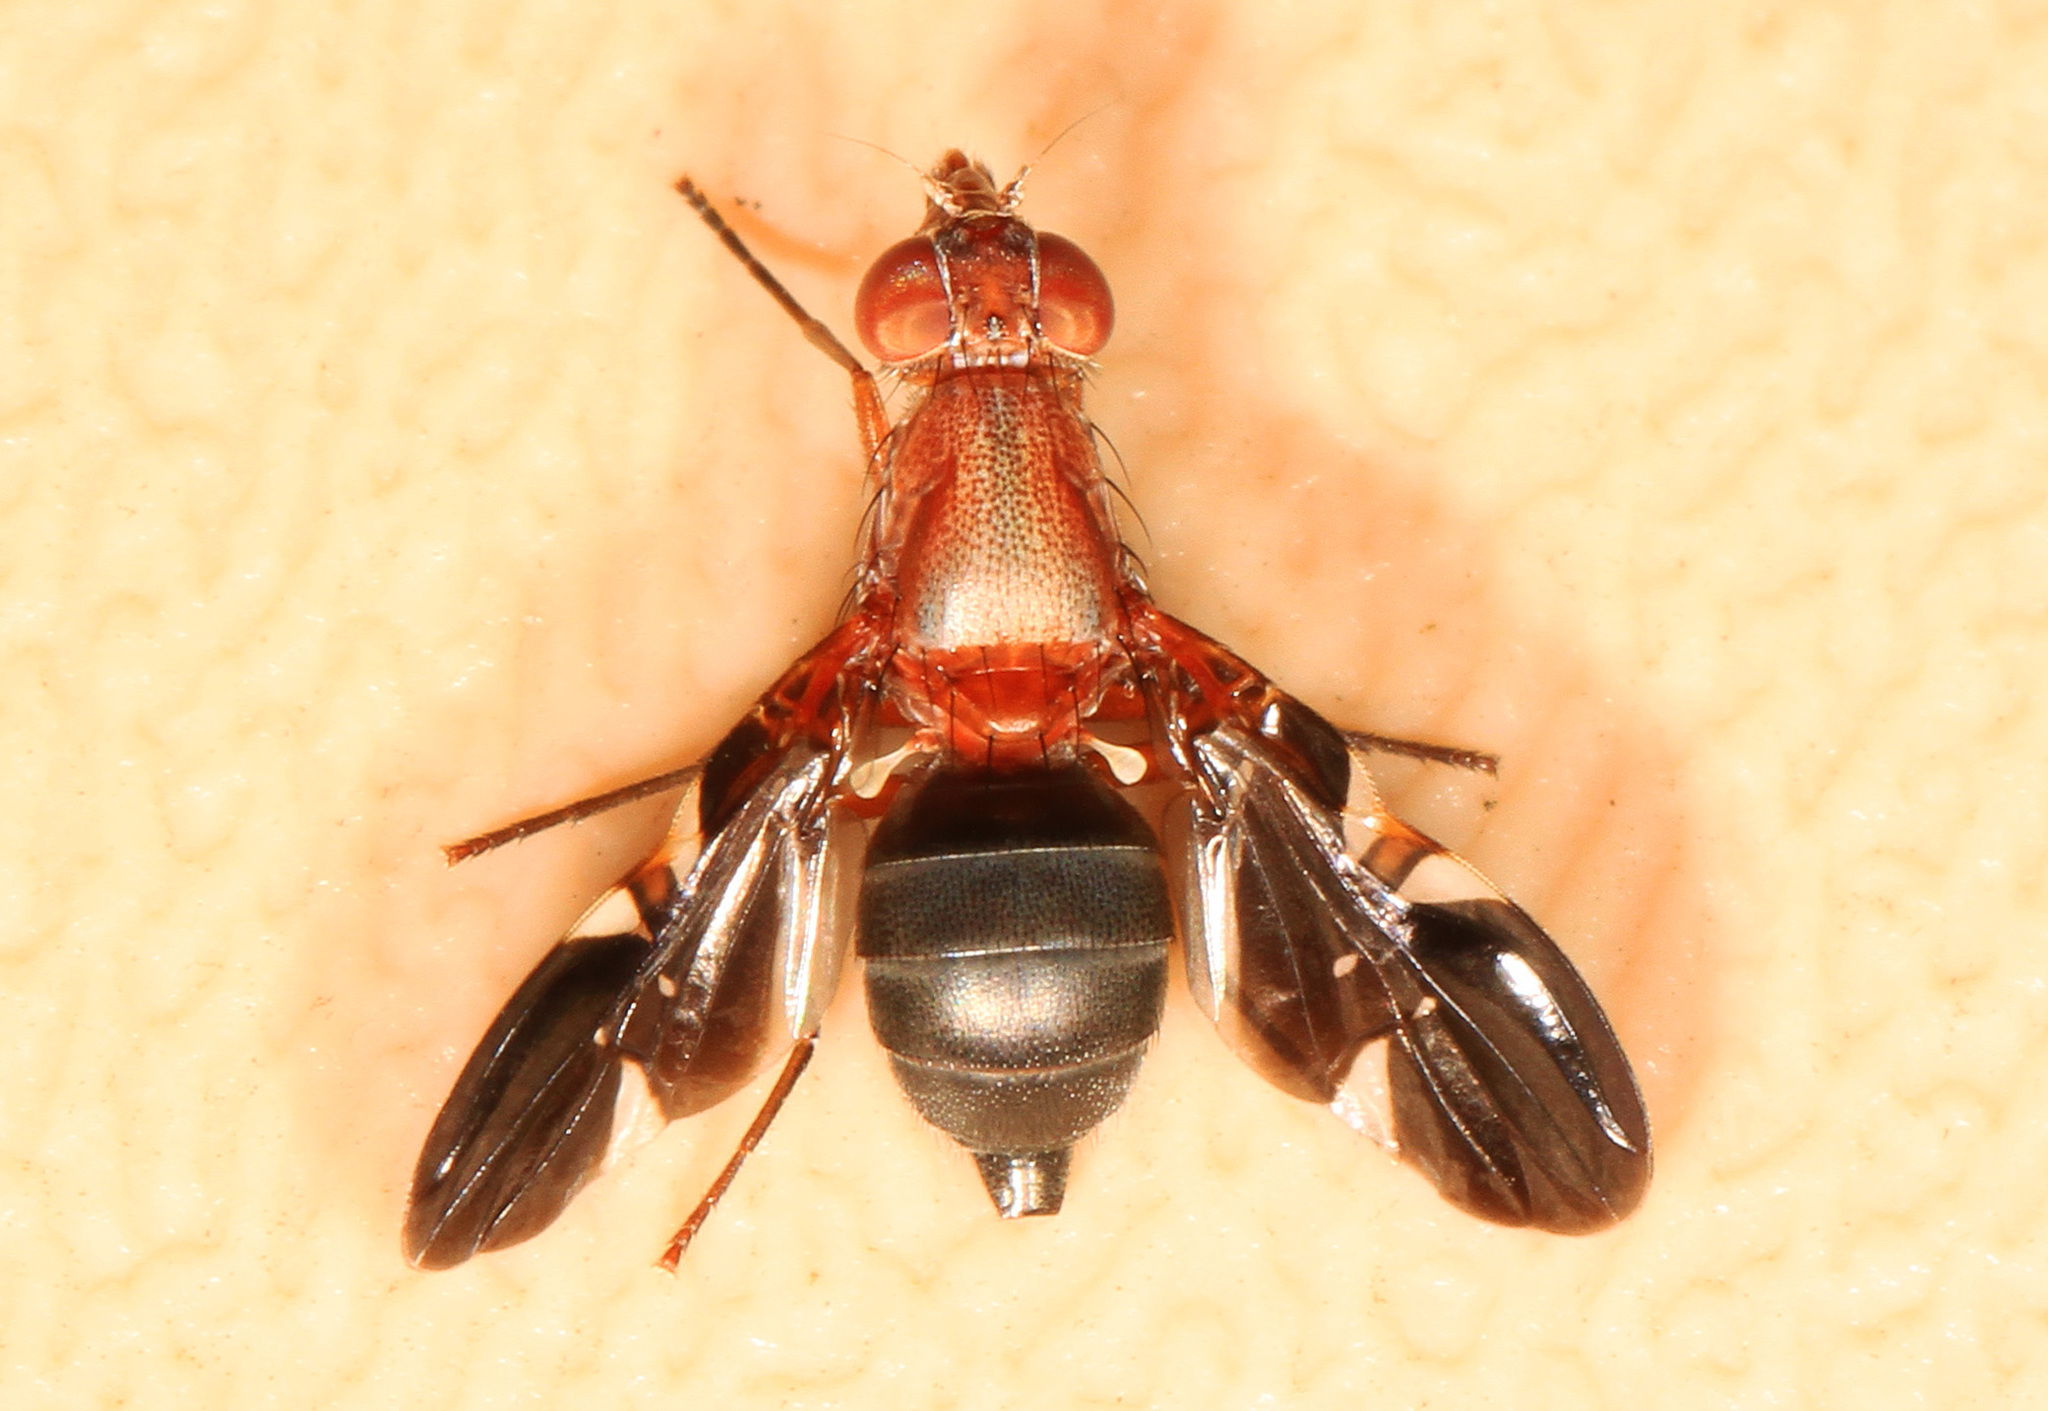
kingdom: Animalia
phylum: Arthropoda
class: Insecta
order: Diptera
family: Ulidiidae
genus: Delphinia
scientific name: Delphinia picta
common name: Common picture-winged fly
